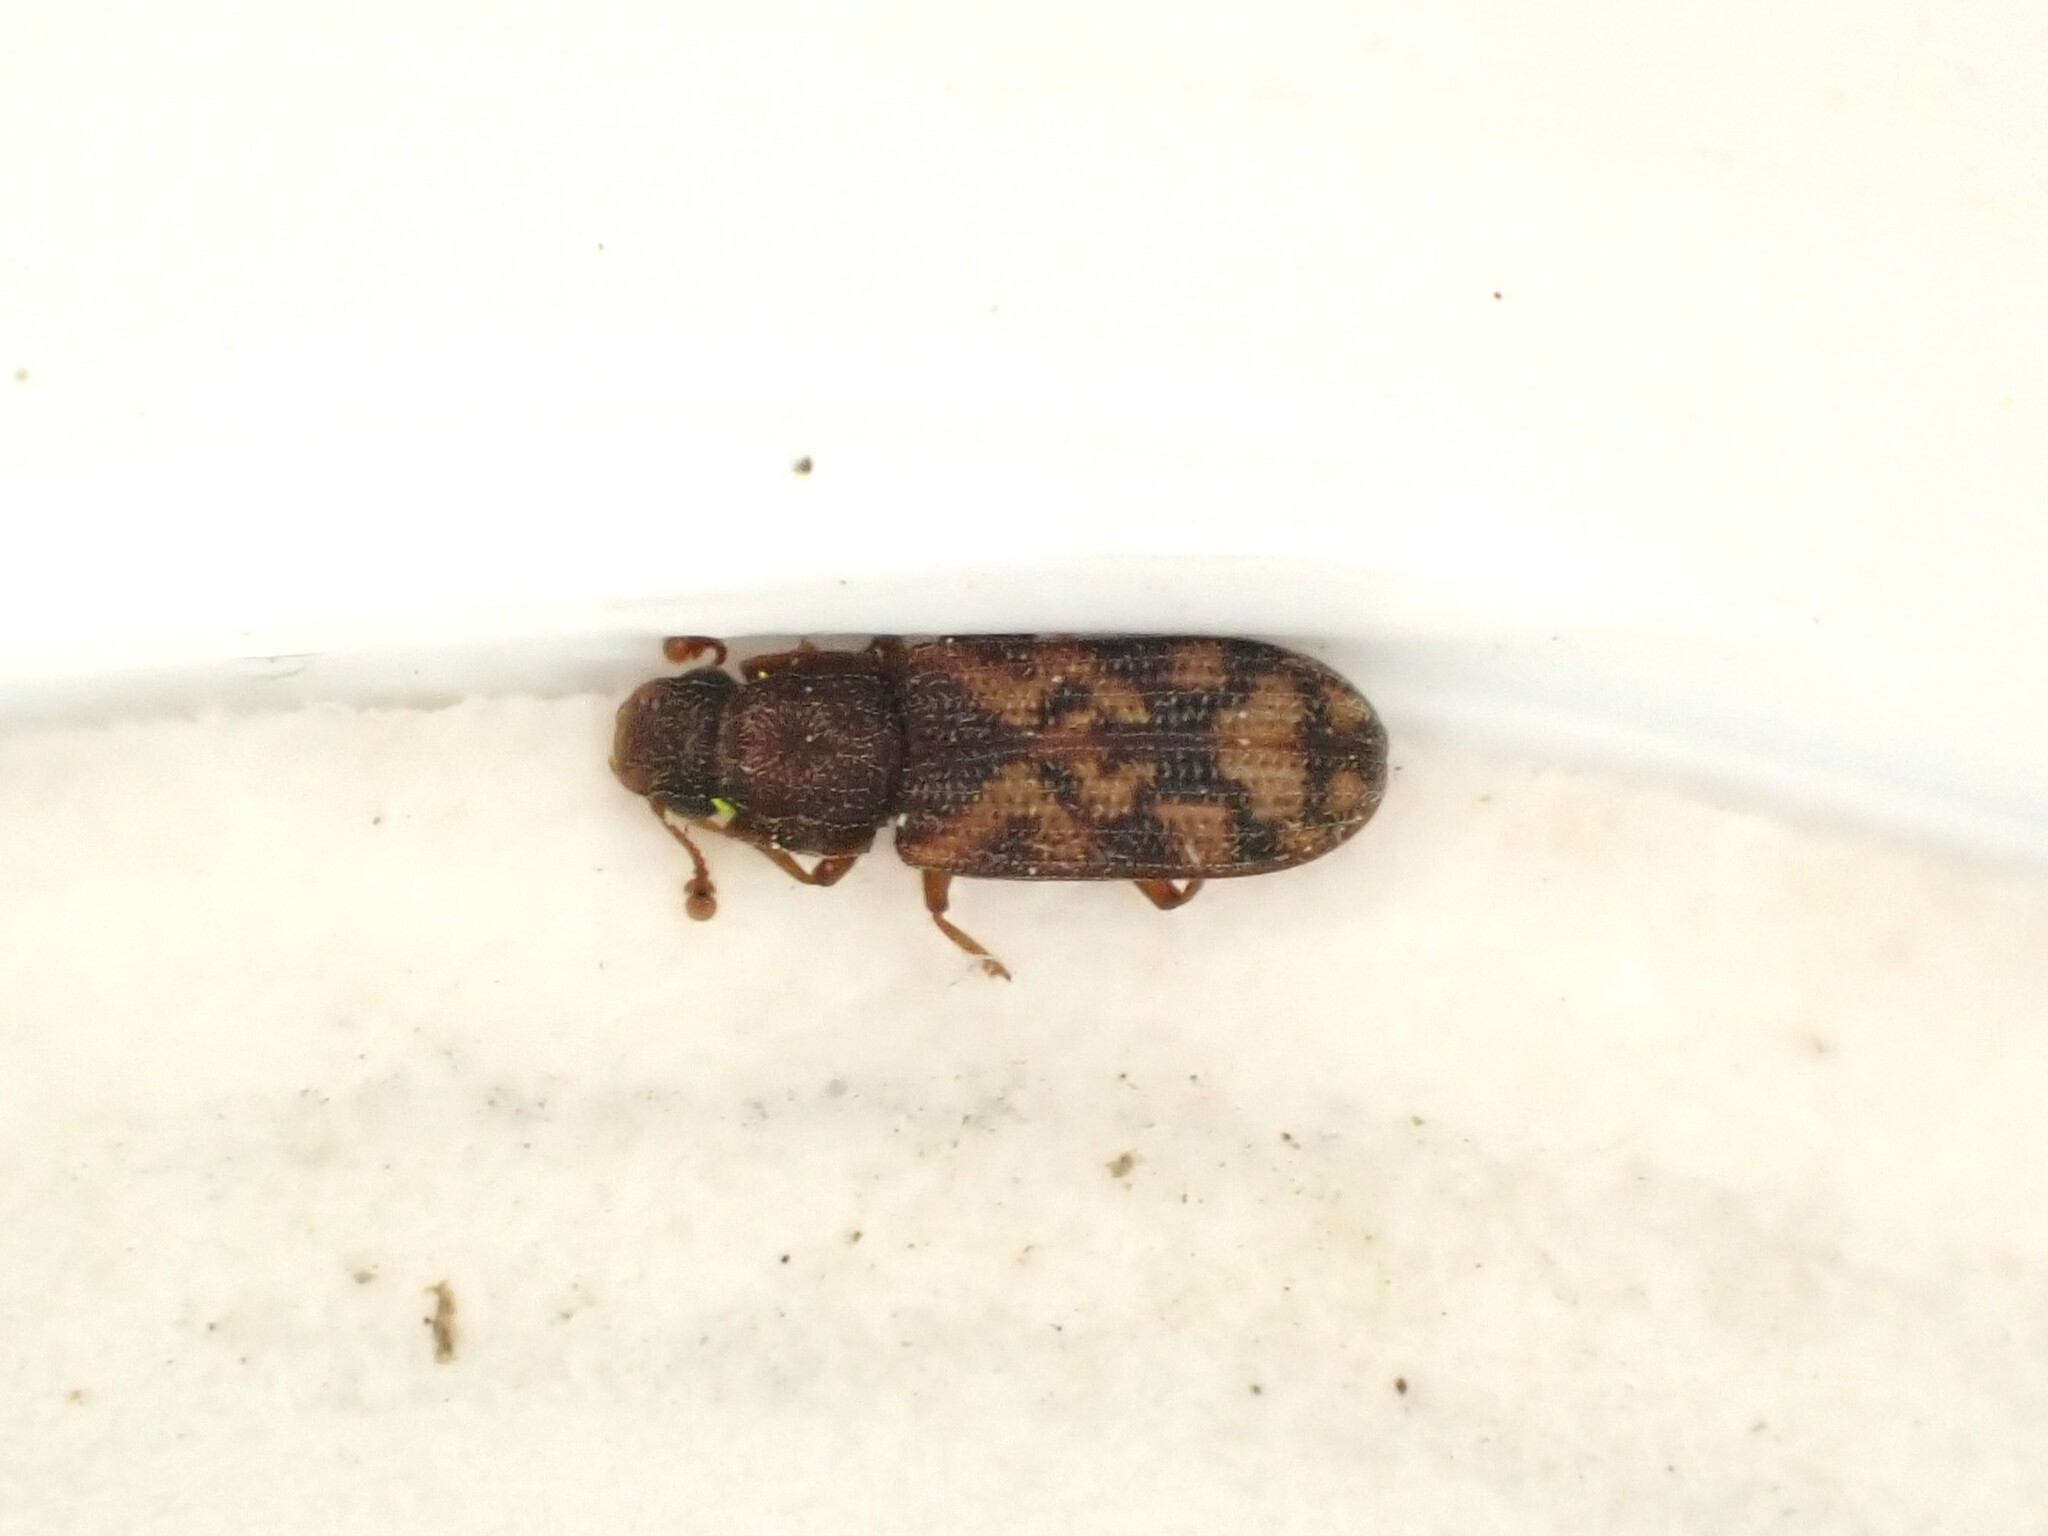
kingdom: Animalia
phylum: Arthropoda
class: Insecta
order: Coleoptera
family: Zopheridae
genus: Bitoma
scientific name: Bitoma insularis
